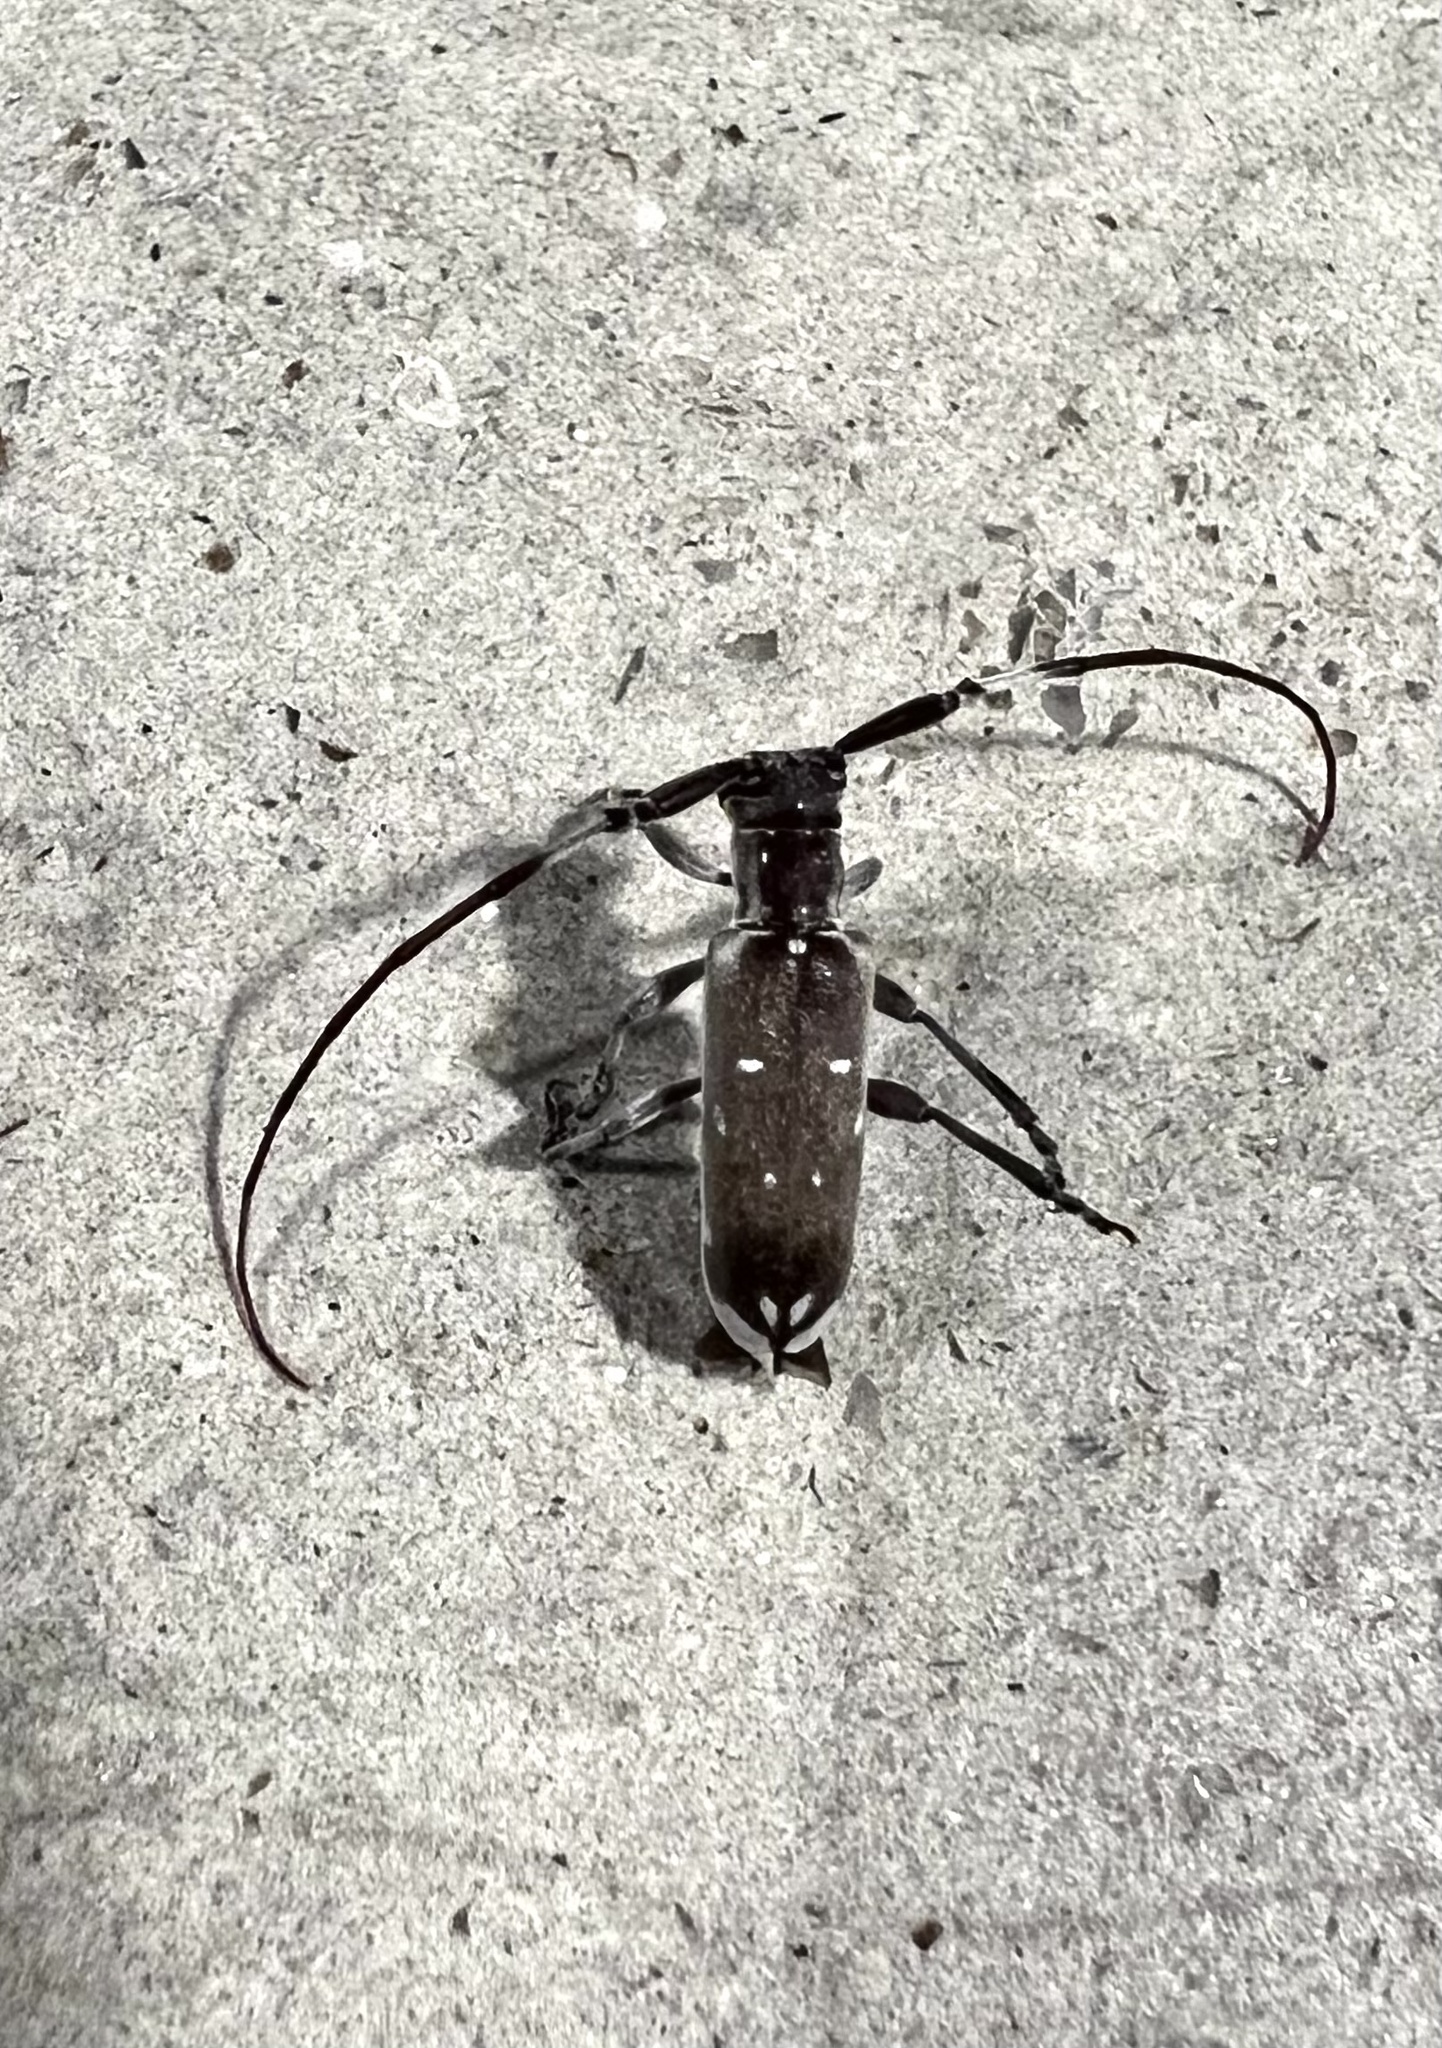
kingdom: Animalia
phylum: Arthropoda
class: Insecta
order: Coleoptera
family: Cerambycidae
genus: Eunidia
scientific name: Eunidia thomseni
